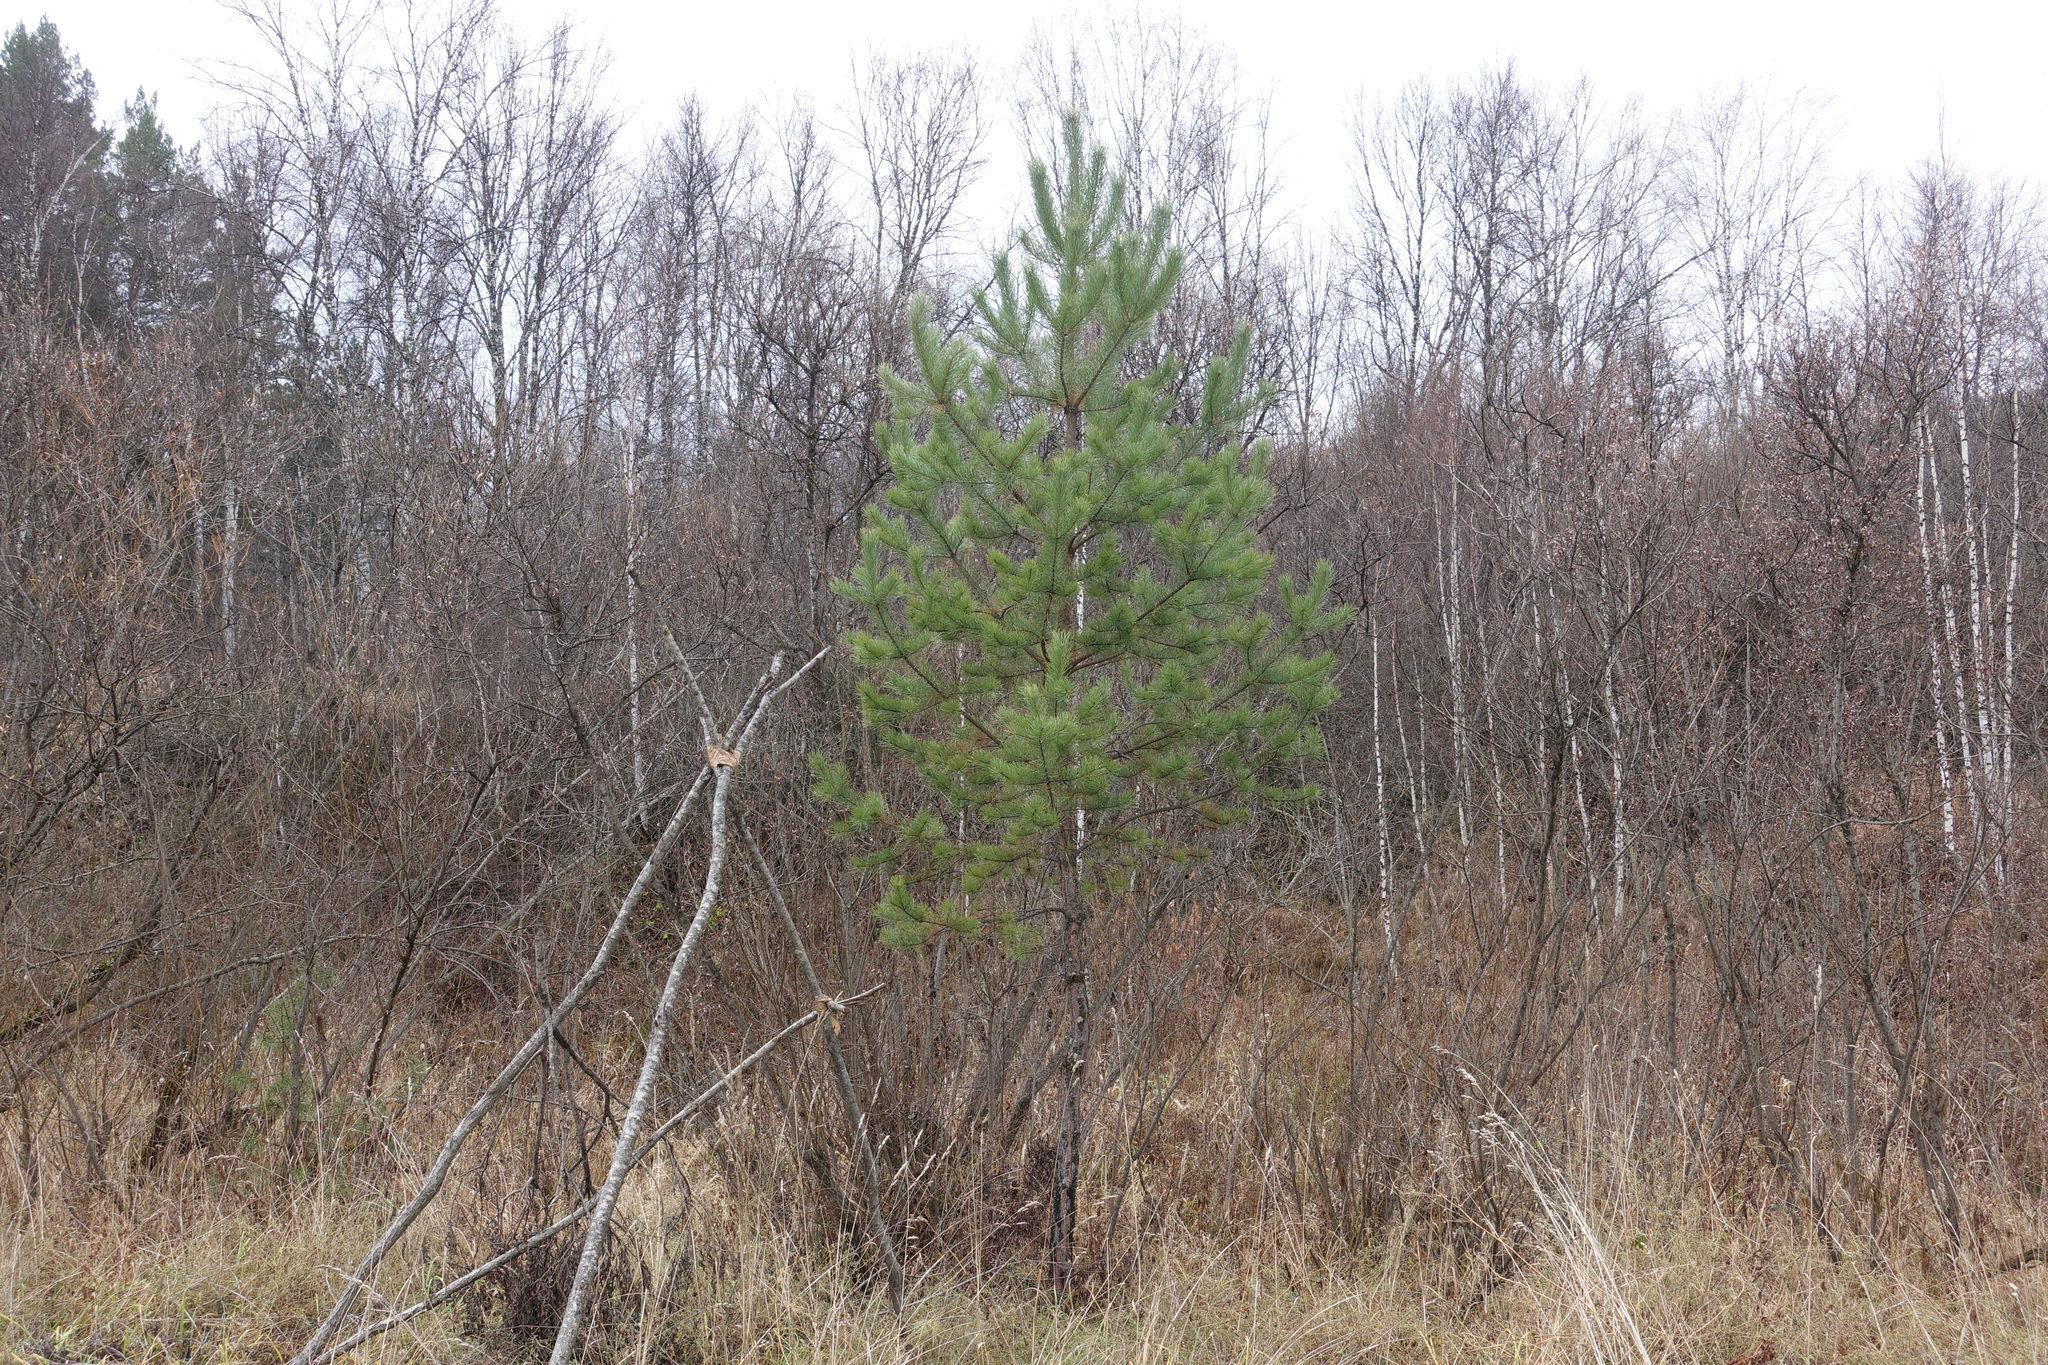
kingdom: Plantae
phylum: Tracheophyta
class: Pinopsida
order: Pinales
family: Pinaceae
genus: Pinus
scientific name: Pinus sylvestris
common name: Scots pine
